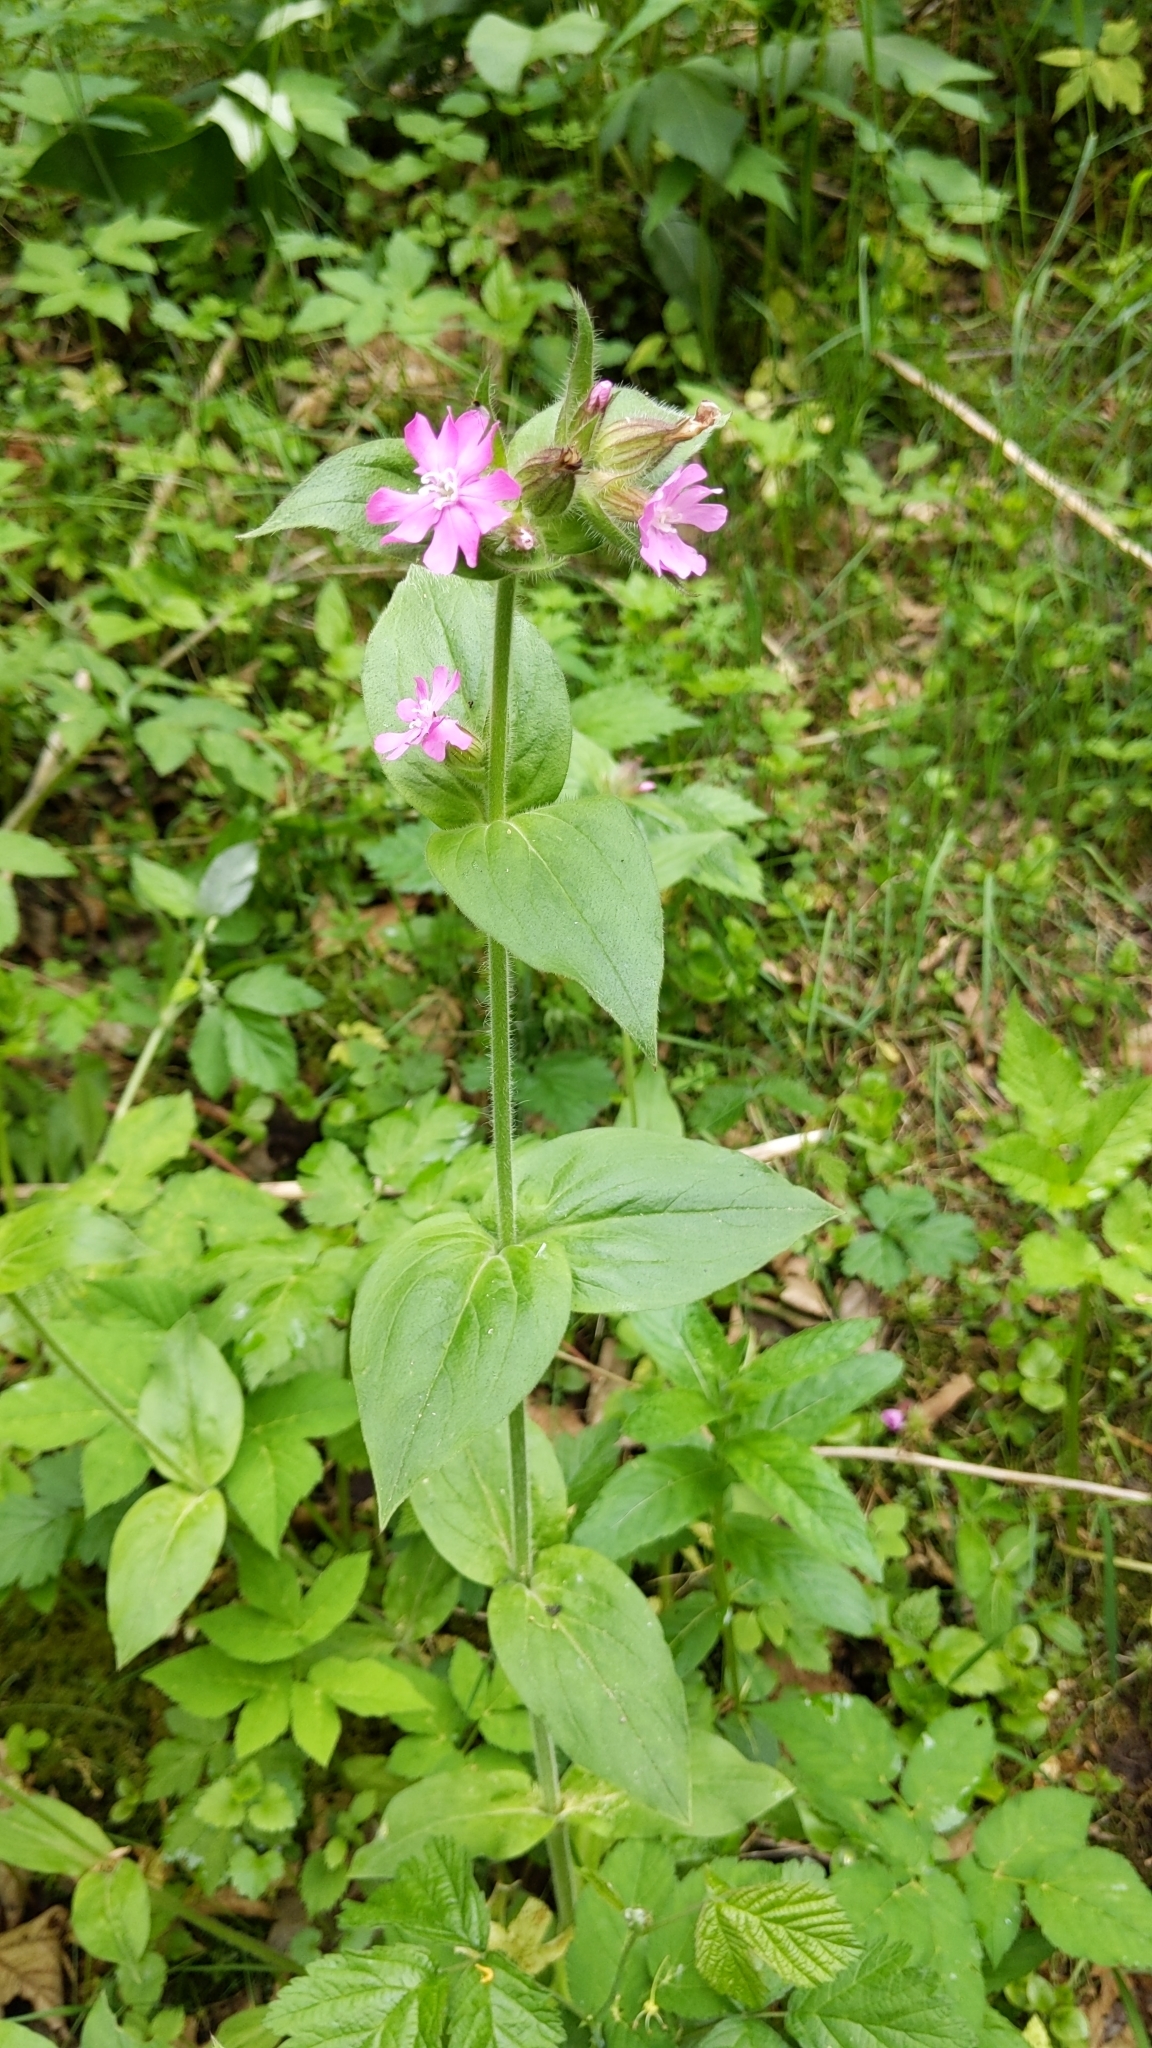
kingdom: Plantae
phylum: Tracheophyta
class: Magnoliopsida
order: Caryophyllales
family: Caryophyllaceae
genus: Silene
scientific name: Silene dioica
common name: Red campion
